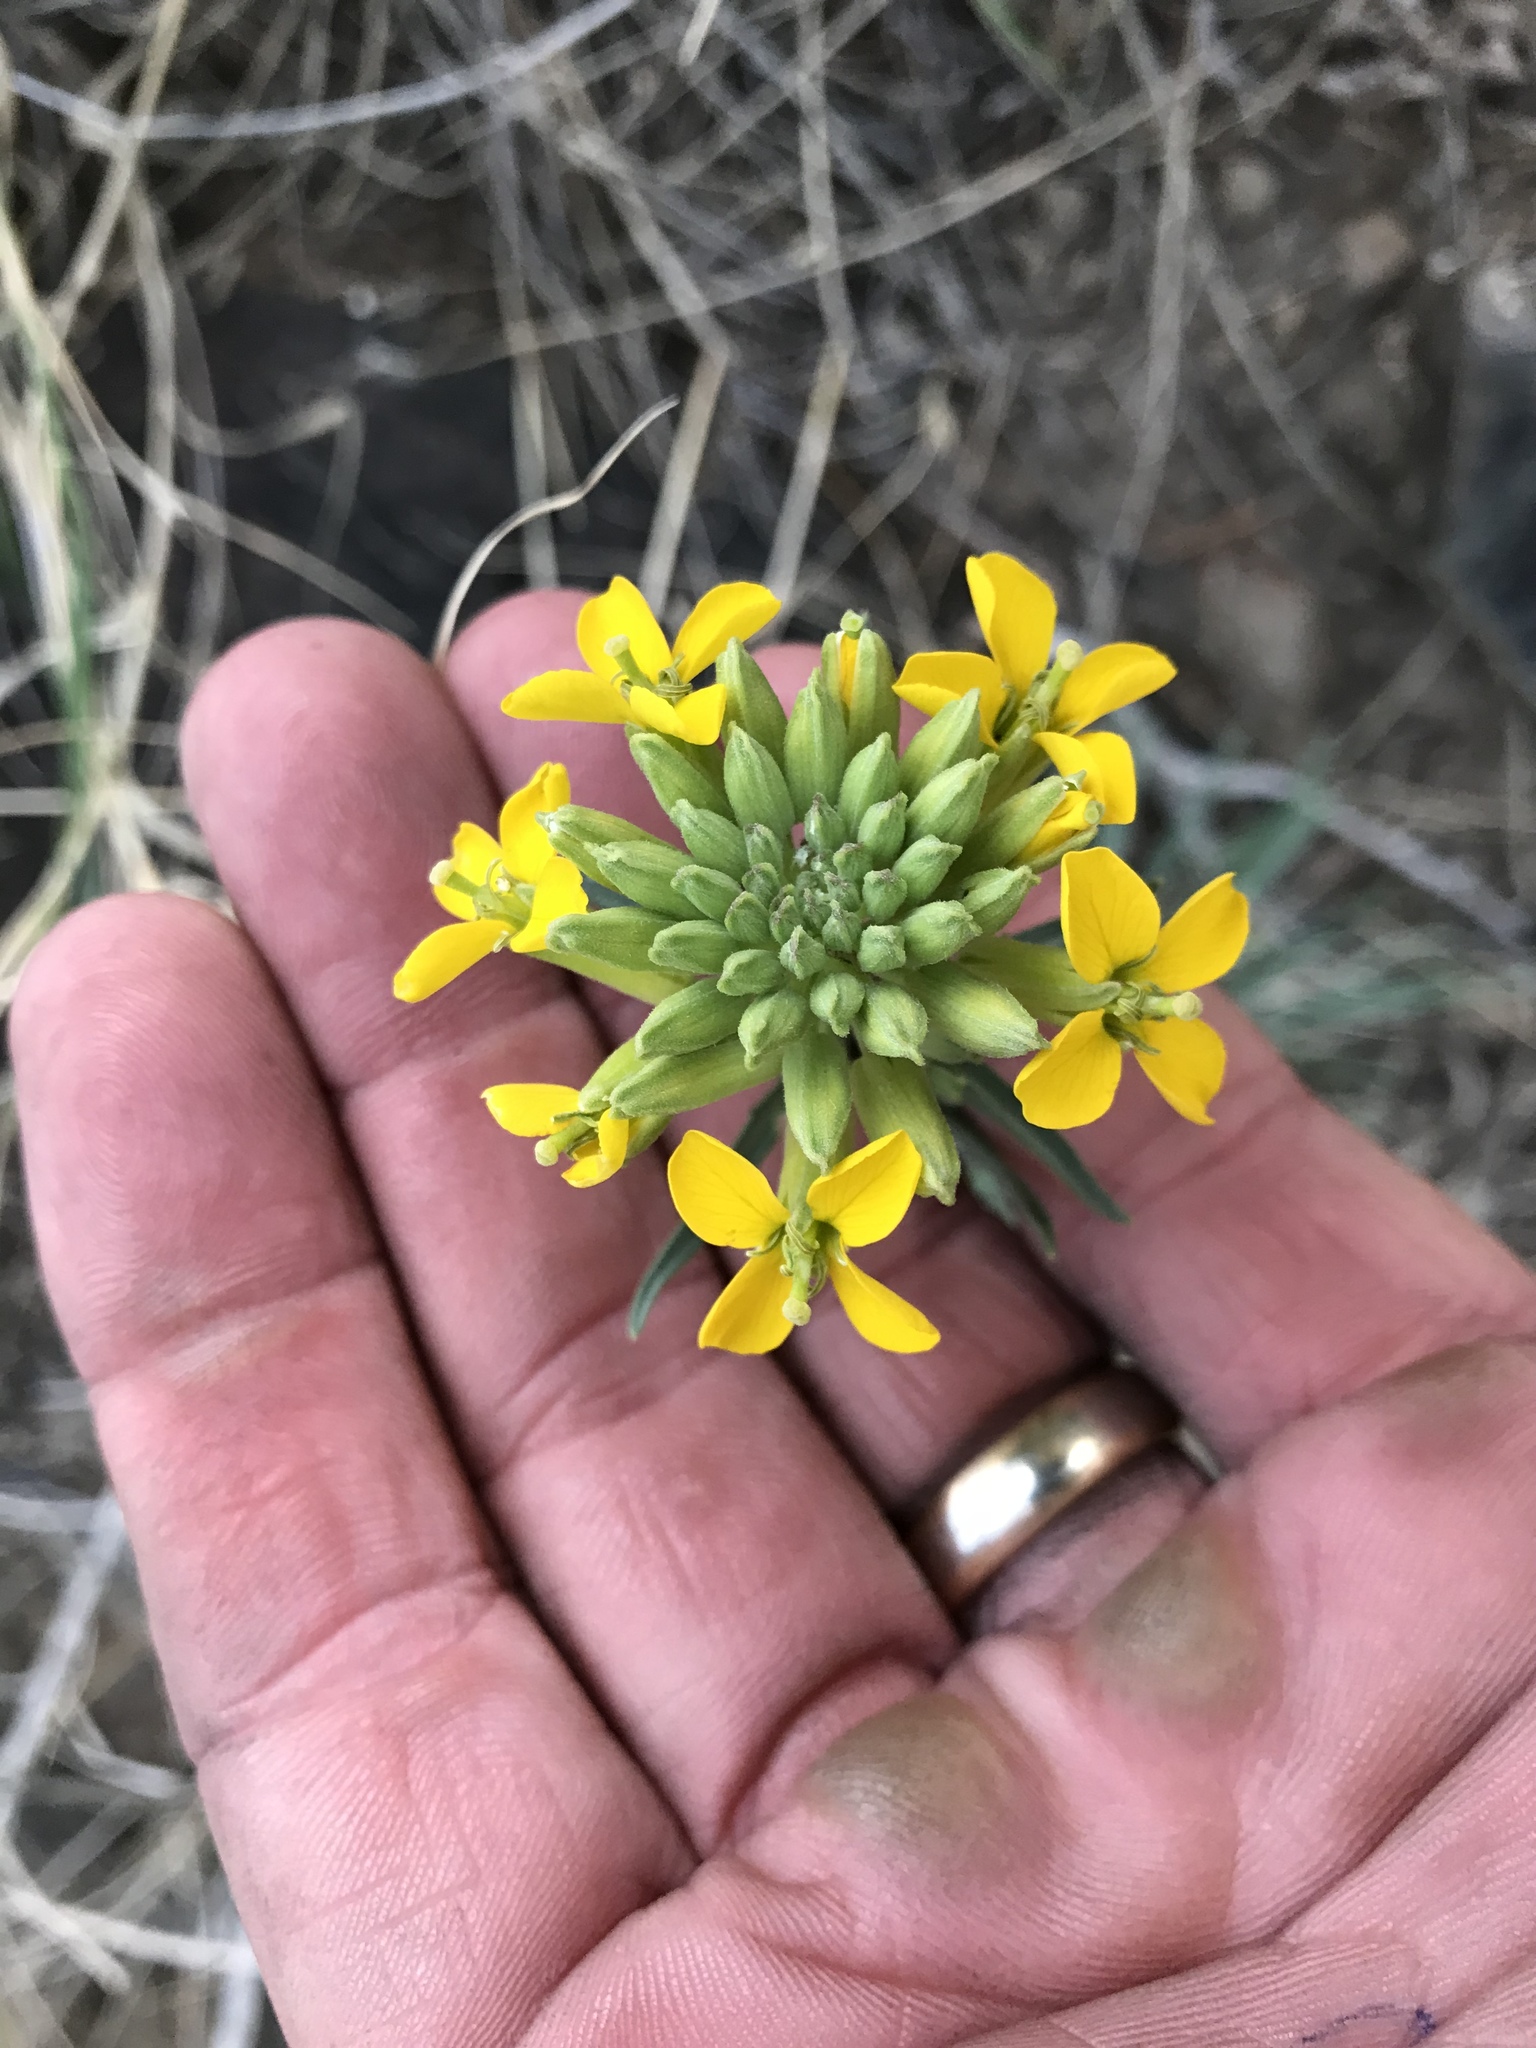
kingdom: Plantae
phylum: Tracheophyta
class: Magnoliopsida
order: Brassicales
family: Brassicaceae
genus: Erysimum
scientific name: Erysimum capitatum
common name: Western wallflower
